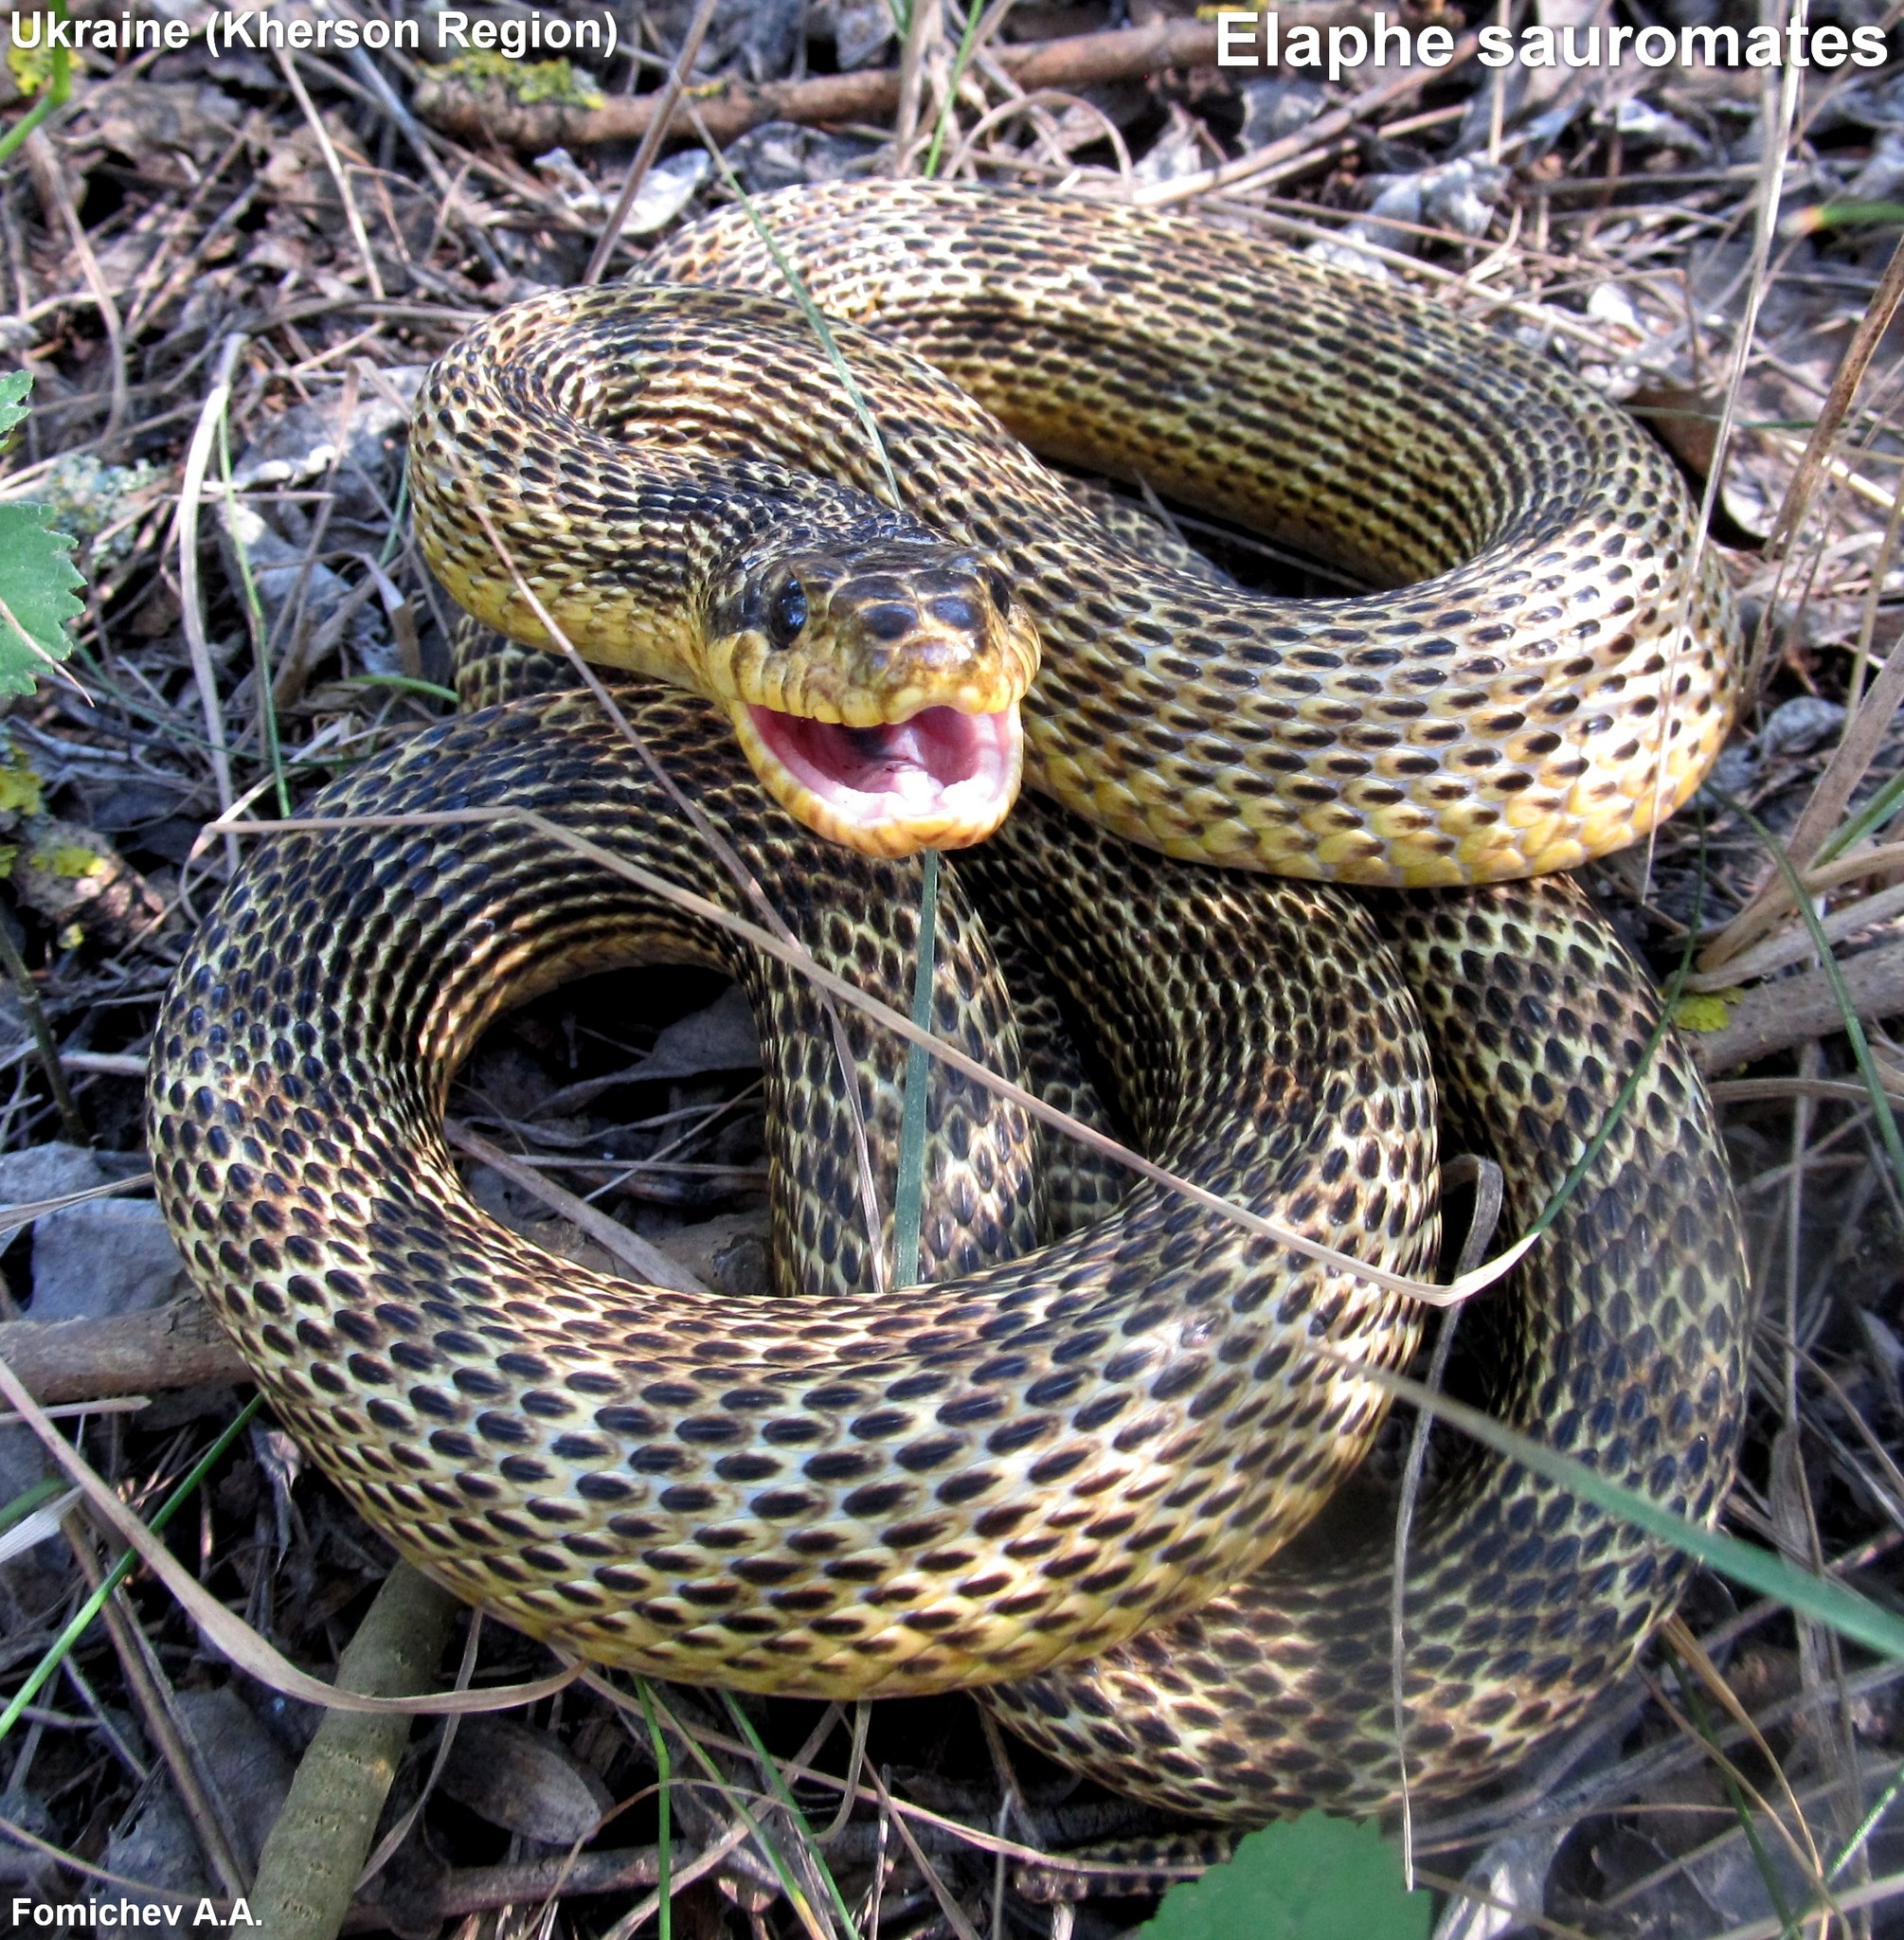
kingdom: Animalia
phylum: Chordata
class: Squamata
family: Colubridae
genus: Elaphe
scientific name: Elaphe sauromates
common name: Eastern four-lined ratsnake
